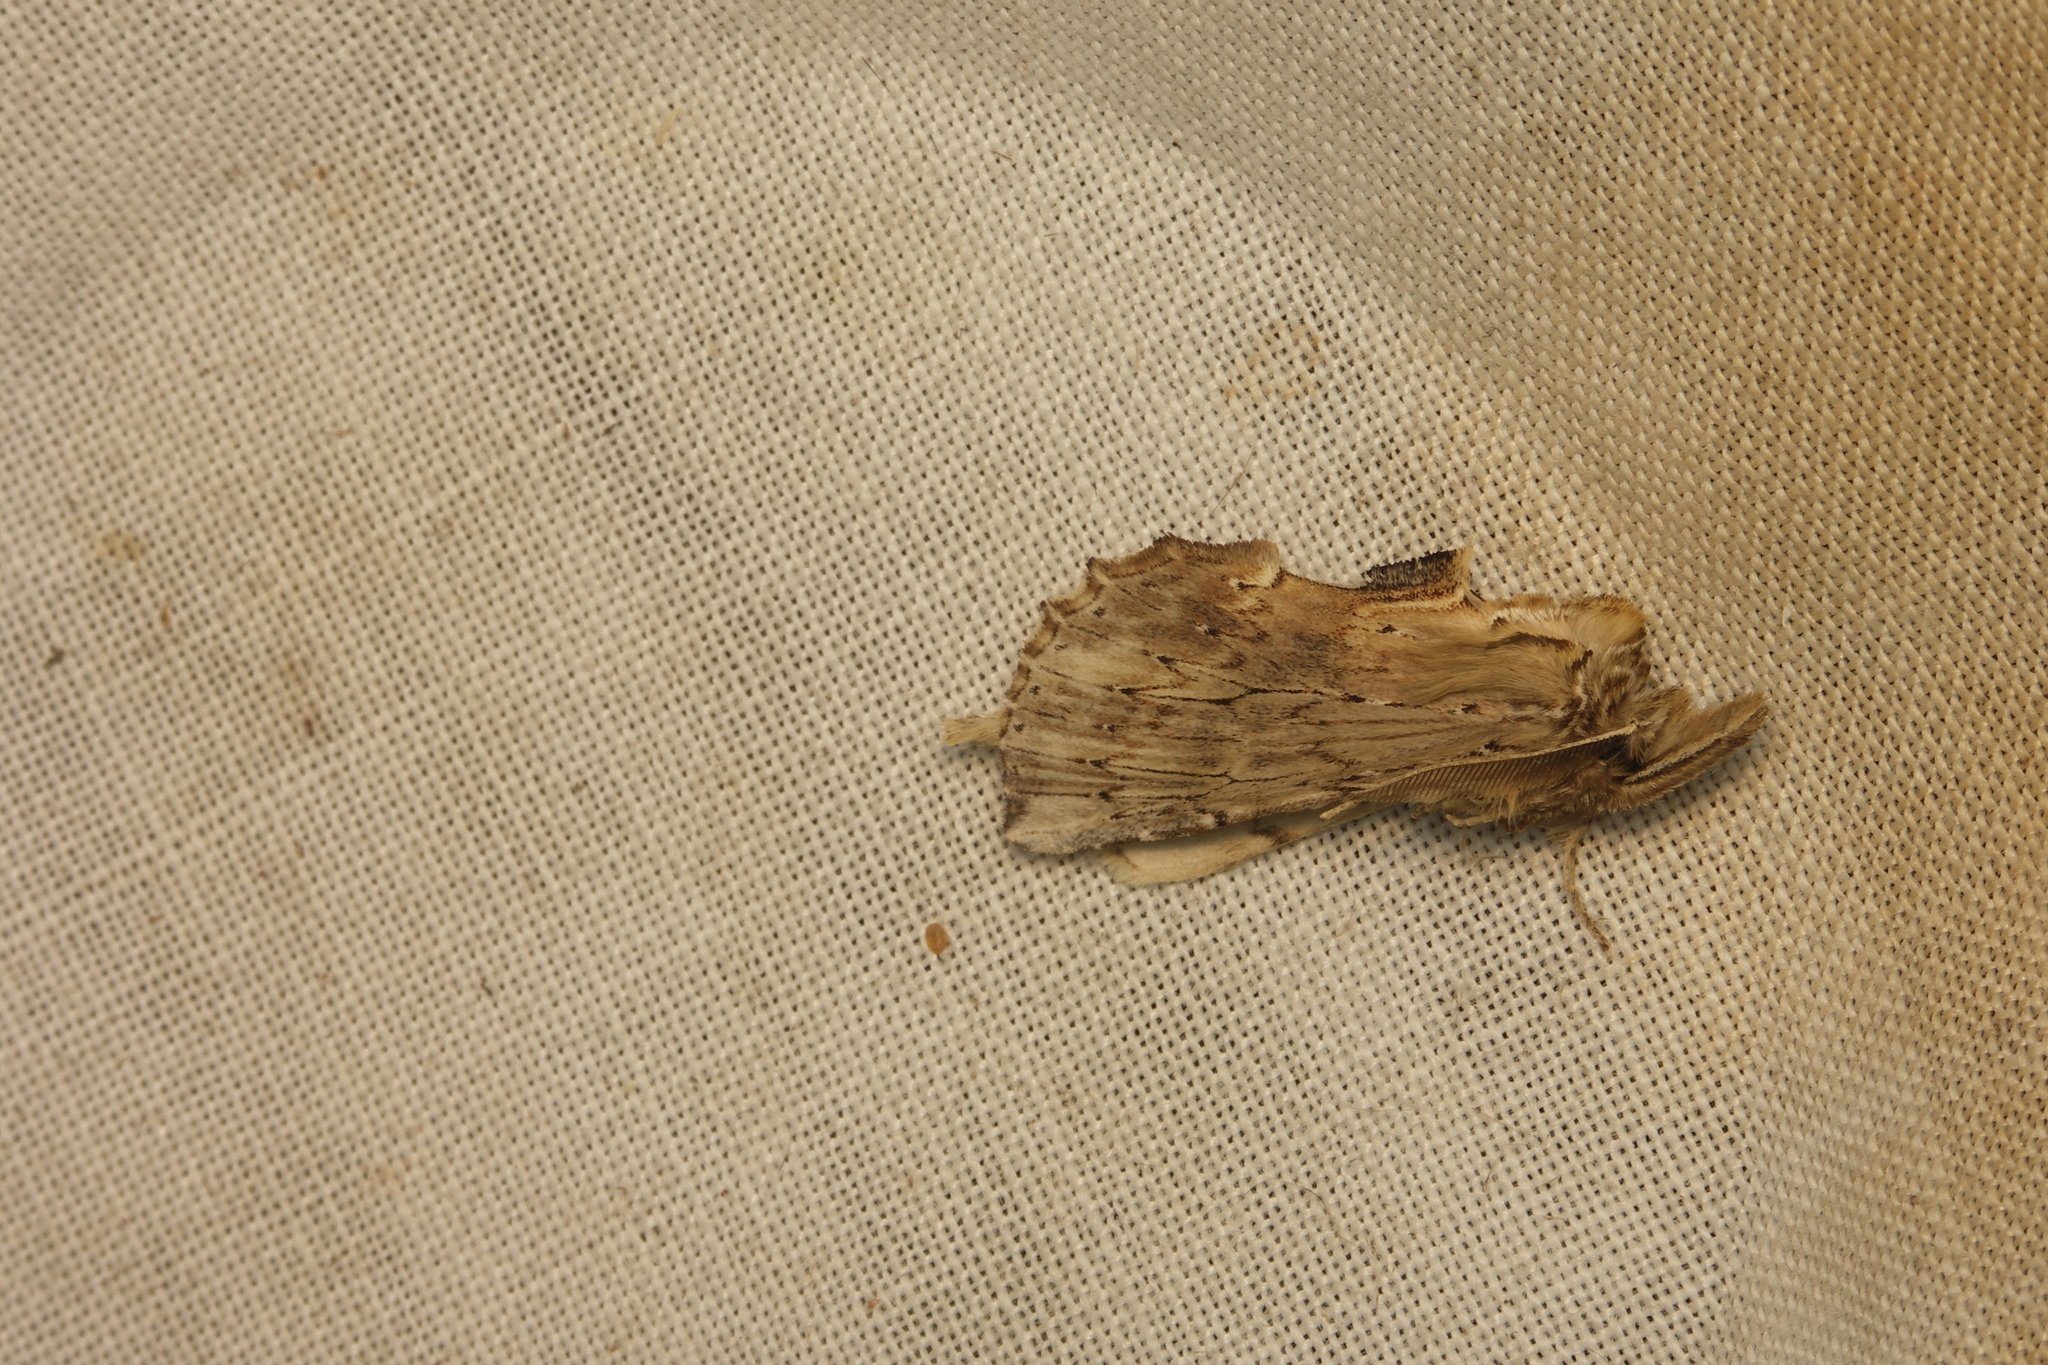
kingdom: Animalia
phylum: Arthropoda
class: Insecta
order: Lepidoptera
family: Notodontidae
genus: Pterostoma
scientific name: Pterostoma palpina
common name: Pale prominent
